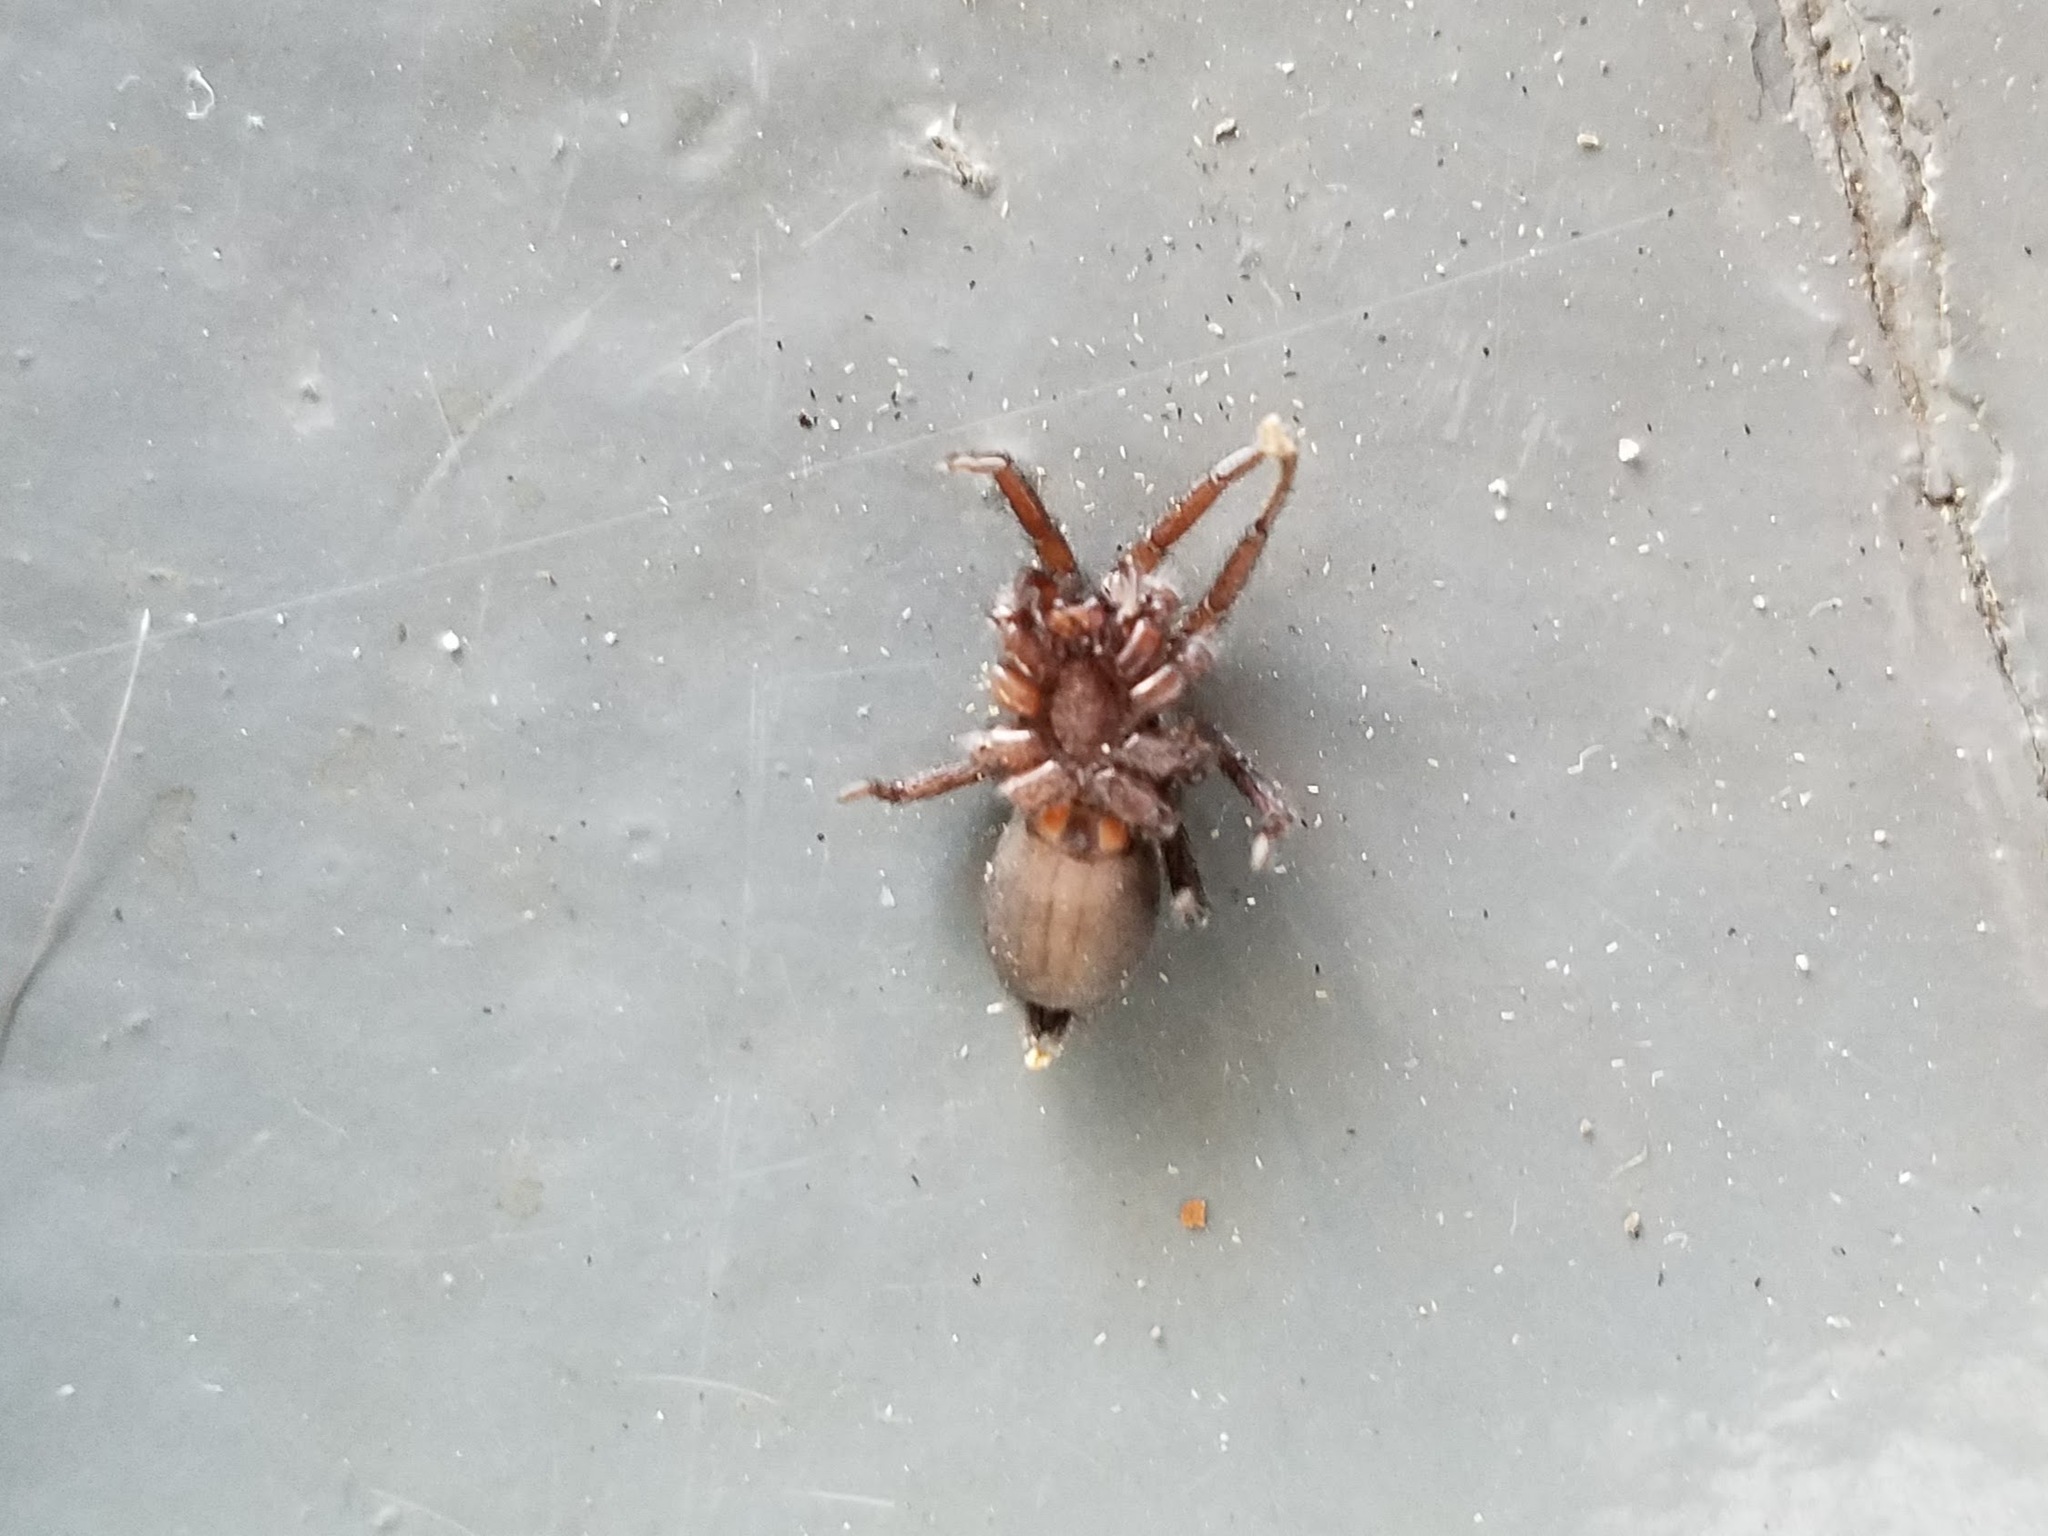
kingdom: Animalia
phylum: Arthropoda
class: Arachnida
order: Araneae
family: Gnaphosidae
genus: Herpyllus
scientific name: Herpyllus ecclesiasticus
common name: Eastern parson spider
